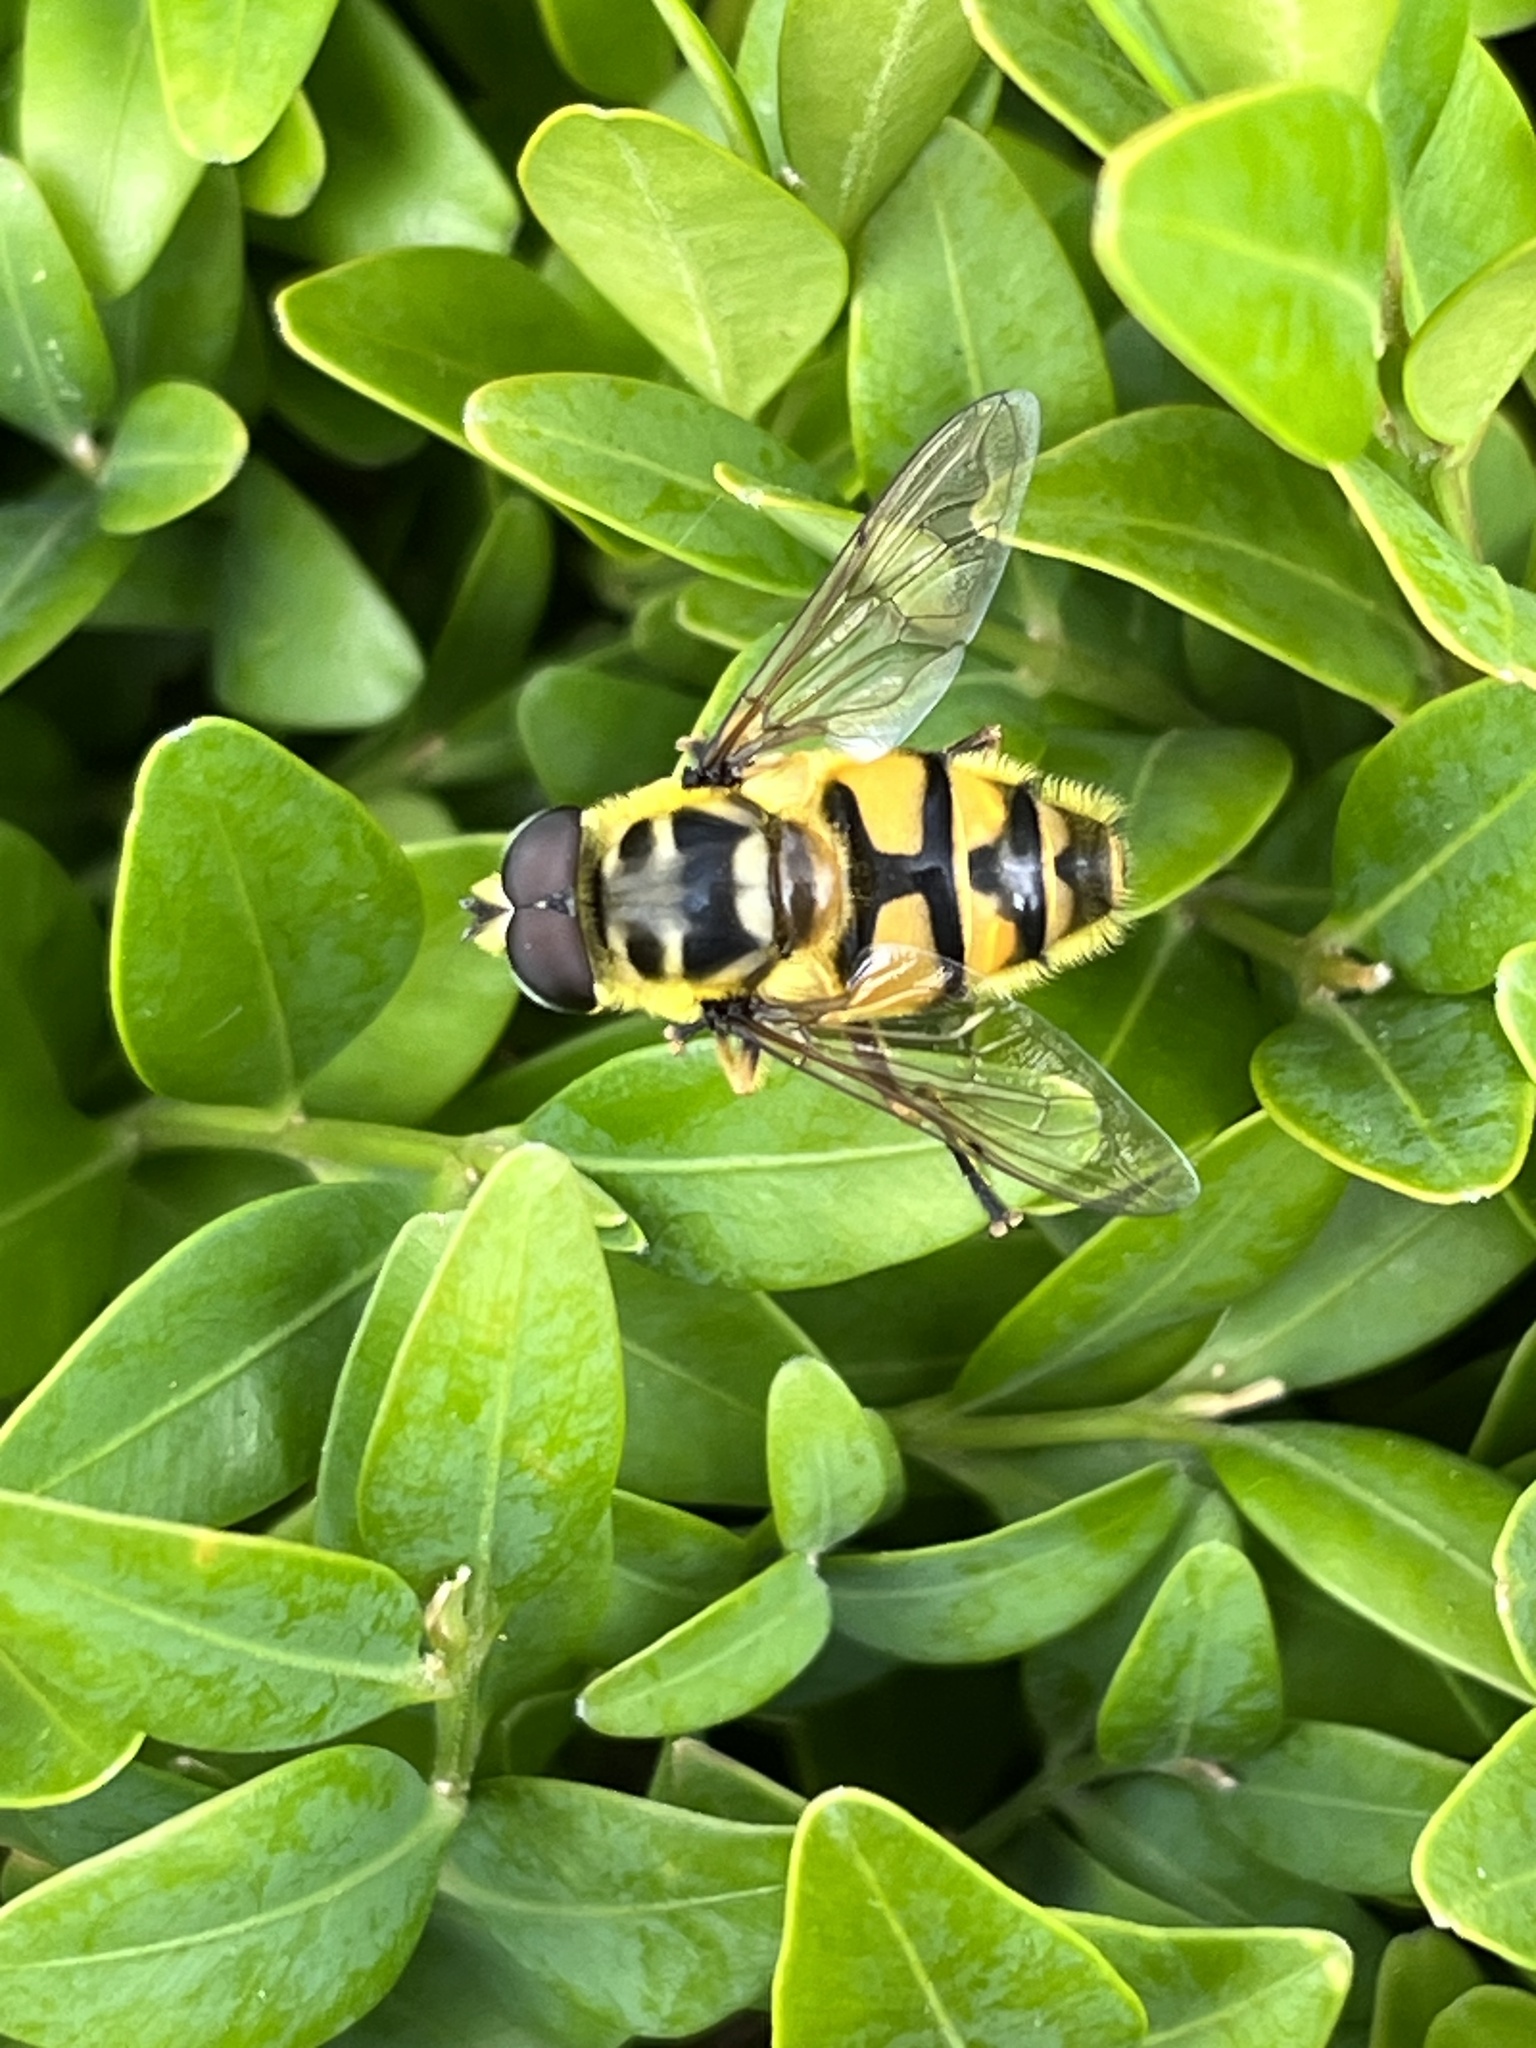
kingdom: Animalia
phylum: Arthropoda
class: Insecta
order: Diptera
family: Syrphidae
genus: Myathropa
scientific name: Myathropa florea
